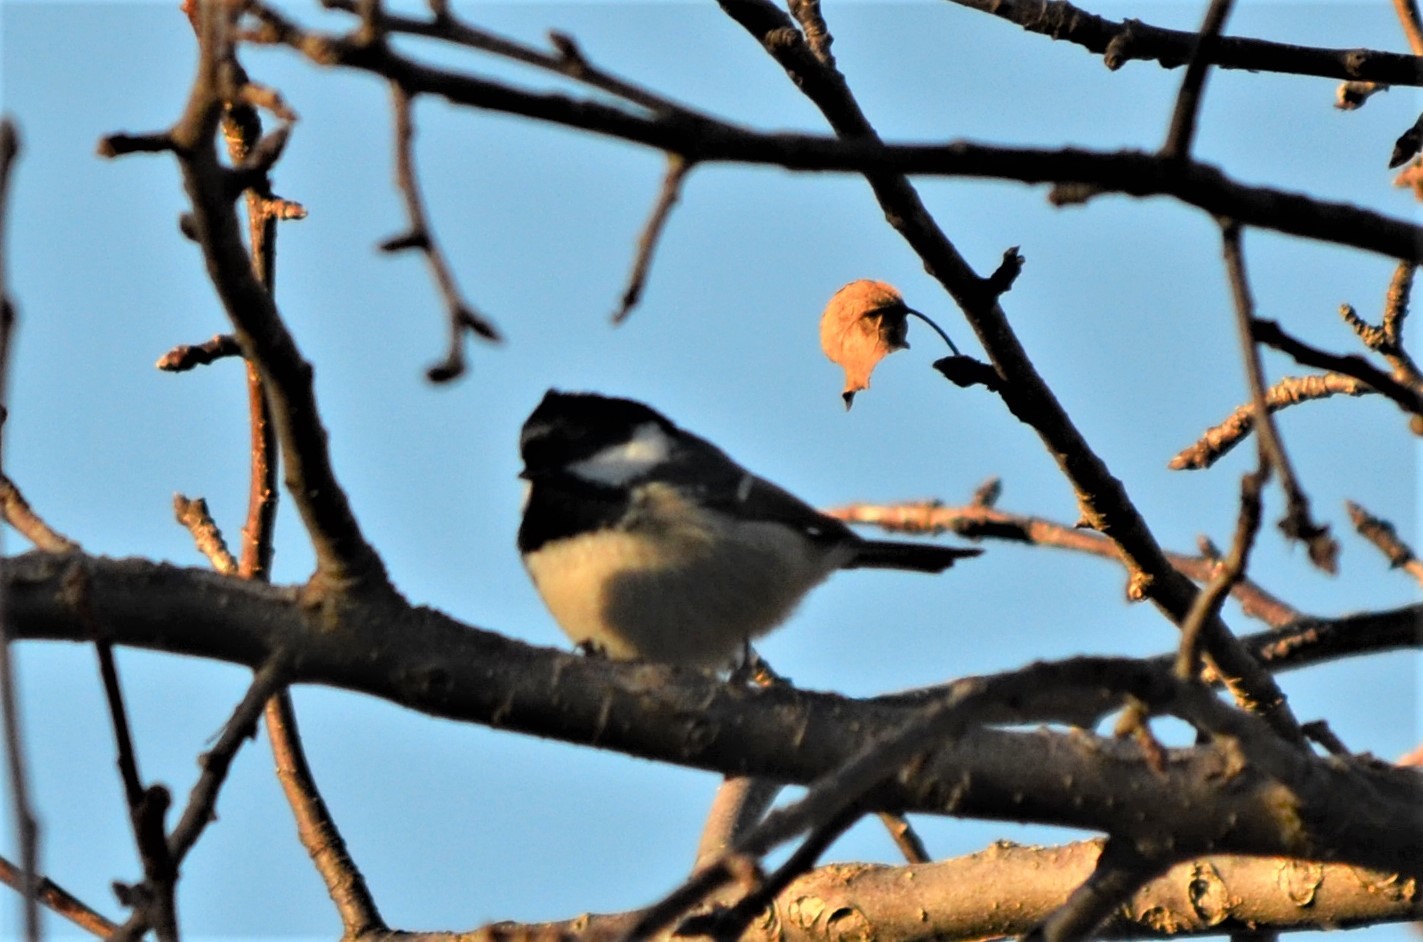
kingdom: Animalia
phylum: Chordata
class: Aves
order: Passeriformes
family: Paridae
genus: Periparus
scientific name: Periparus ater
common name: Coal tit
